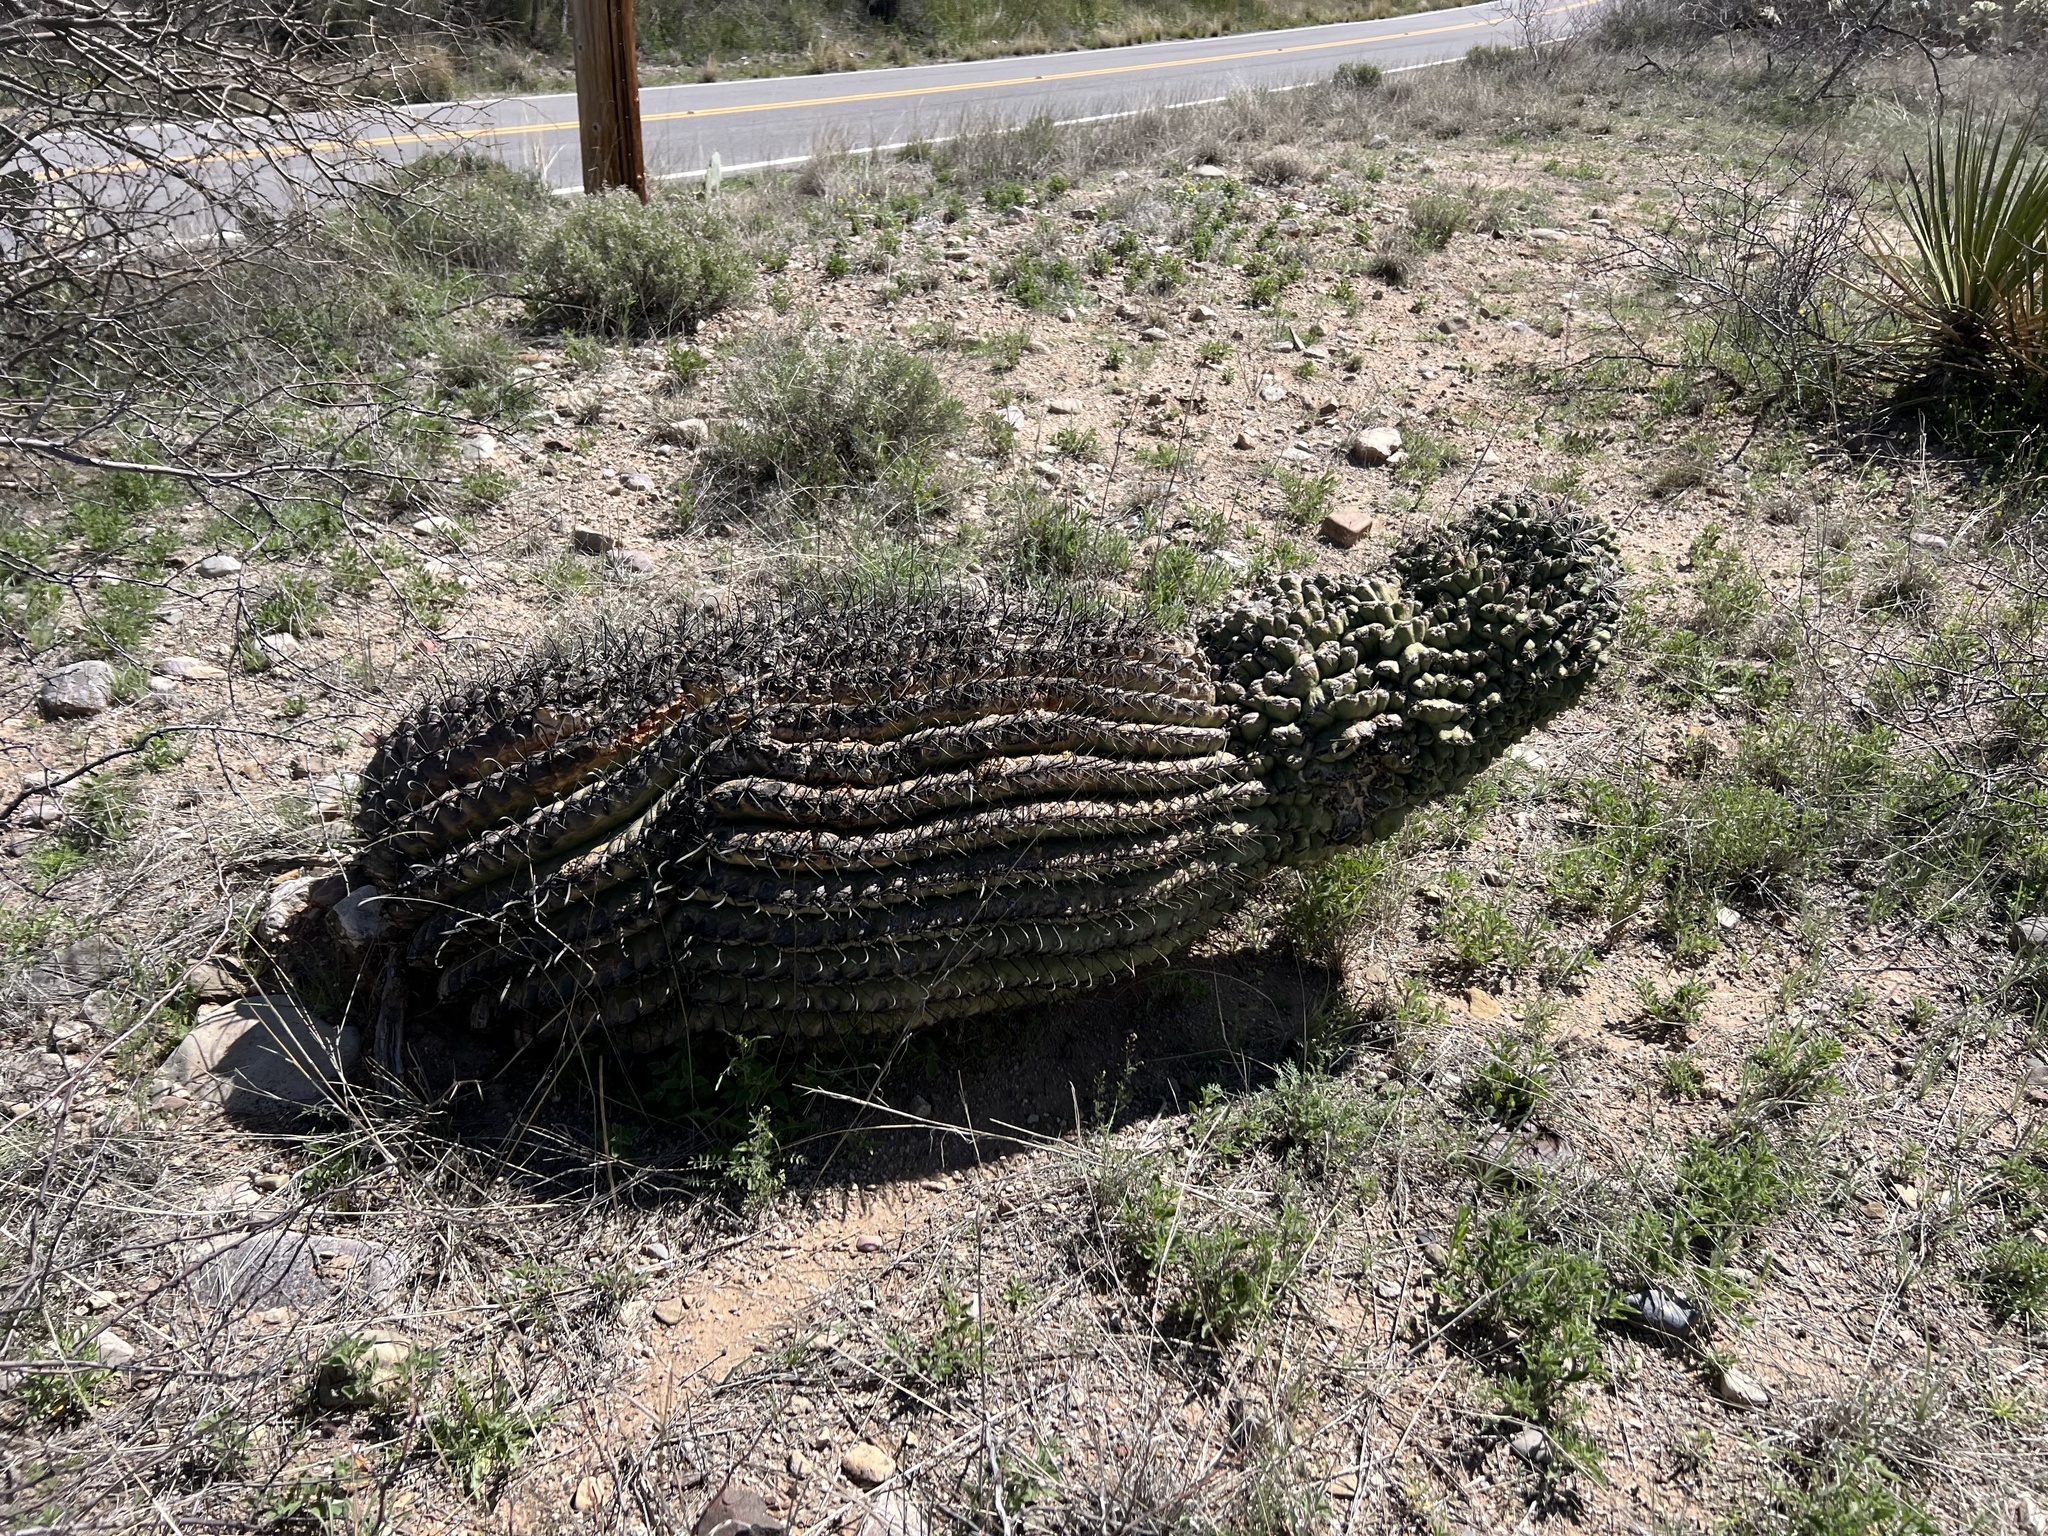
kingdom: Plantae
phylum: Tracheophyta
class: Magnoliopsida
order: Caryophyllales
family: Cactaceae
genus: Ferocactus
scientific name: Ferocactus wislizeni
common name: Candy barrel cactus
